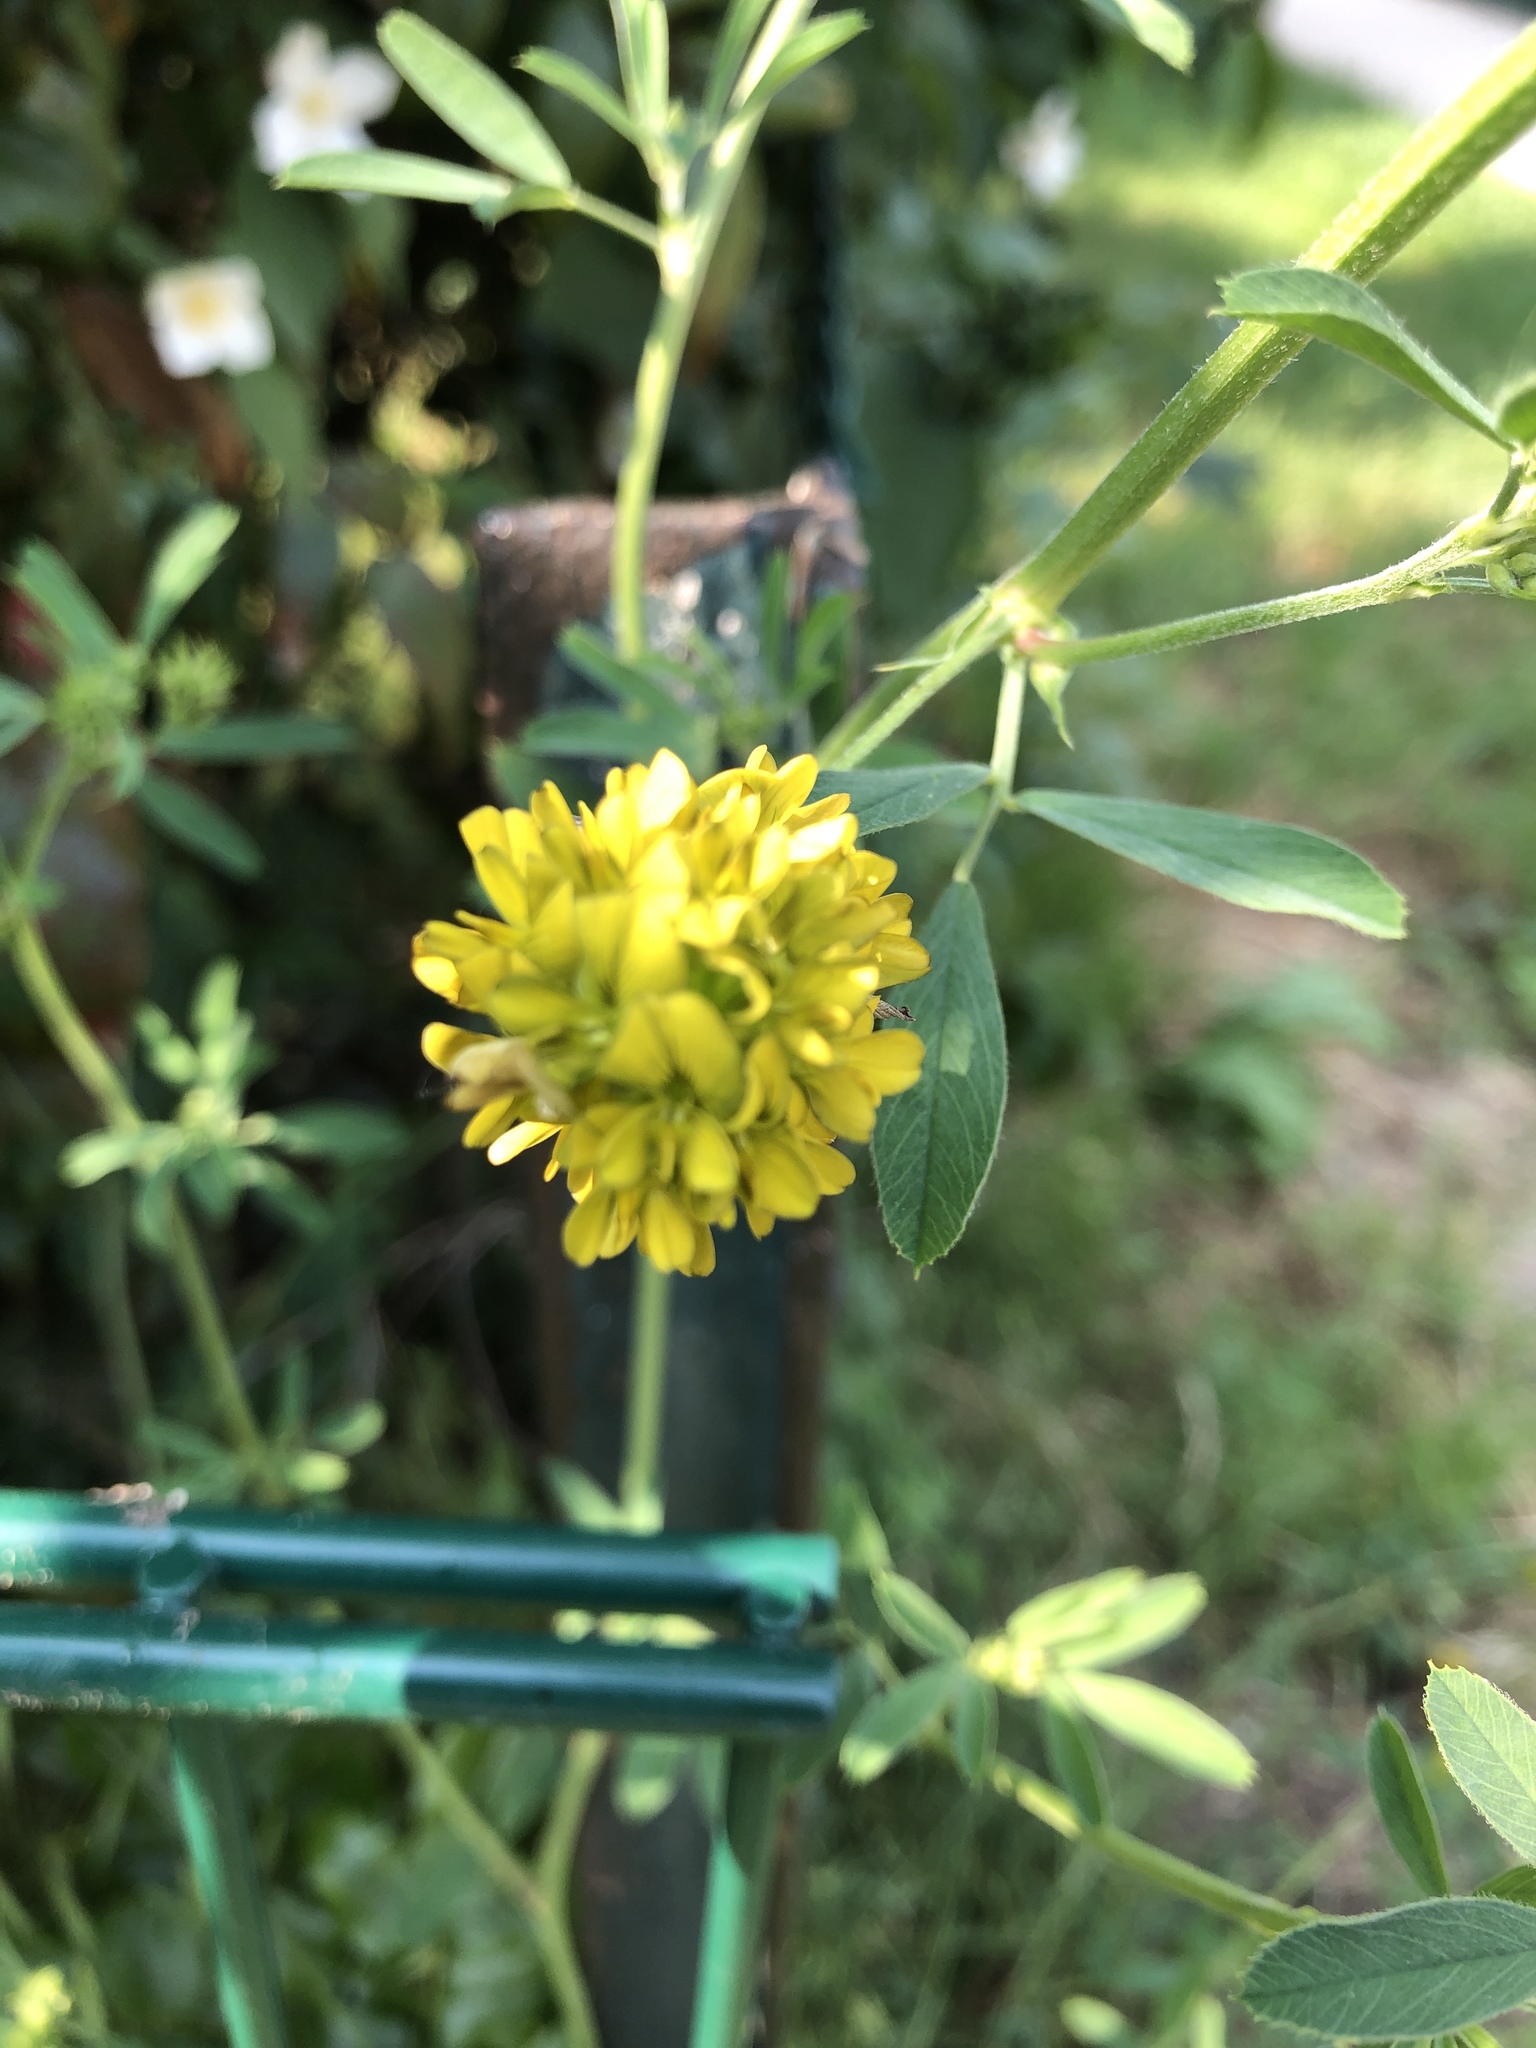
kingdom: Plantae
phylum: Tracheophyta
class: Magnoliopsida
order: Fabales
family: Fabaceae
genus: Medicago
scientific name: Medicago falcata
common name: Sickle medick
